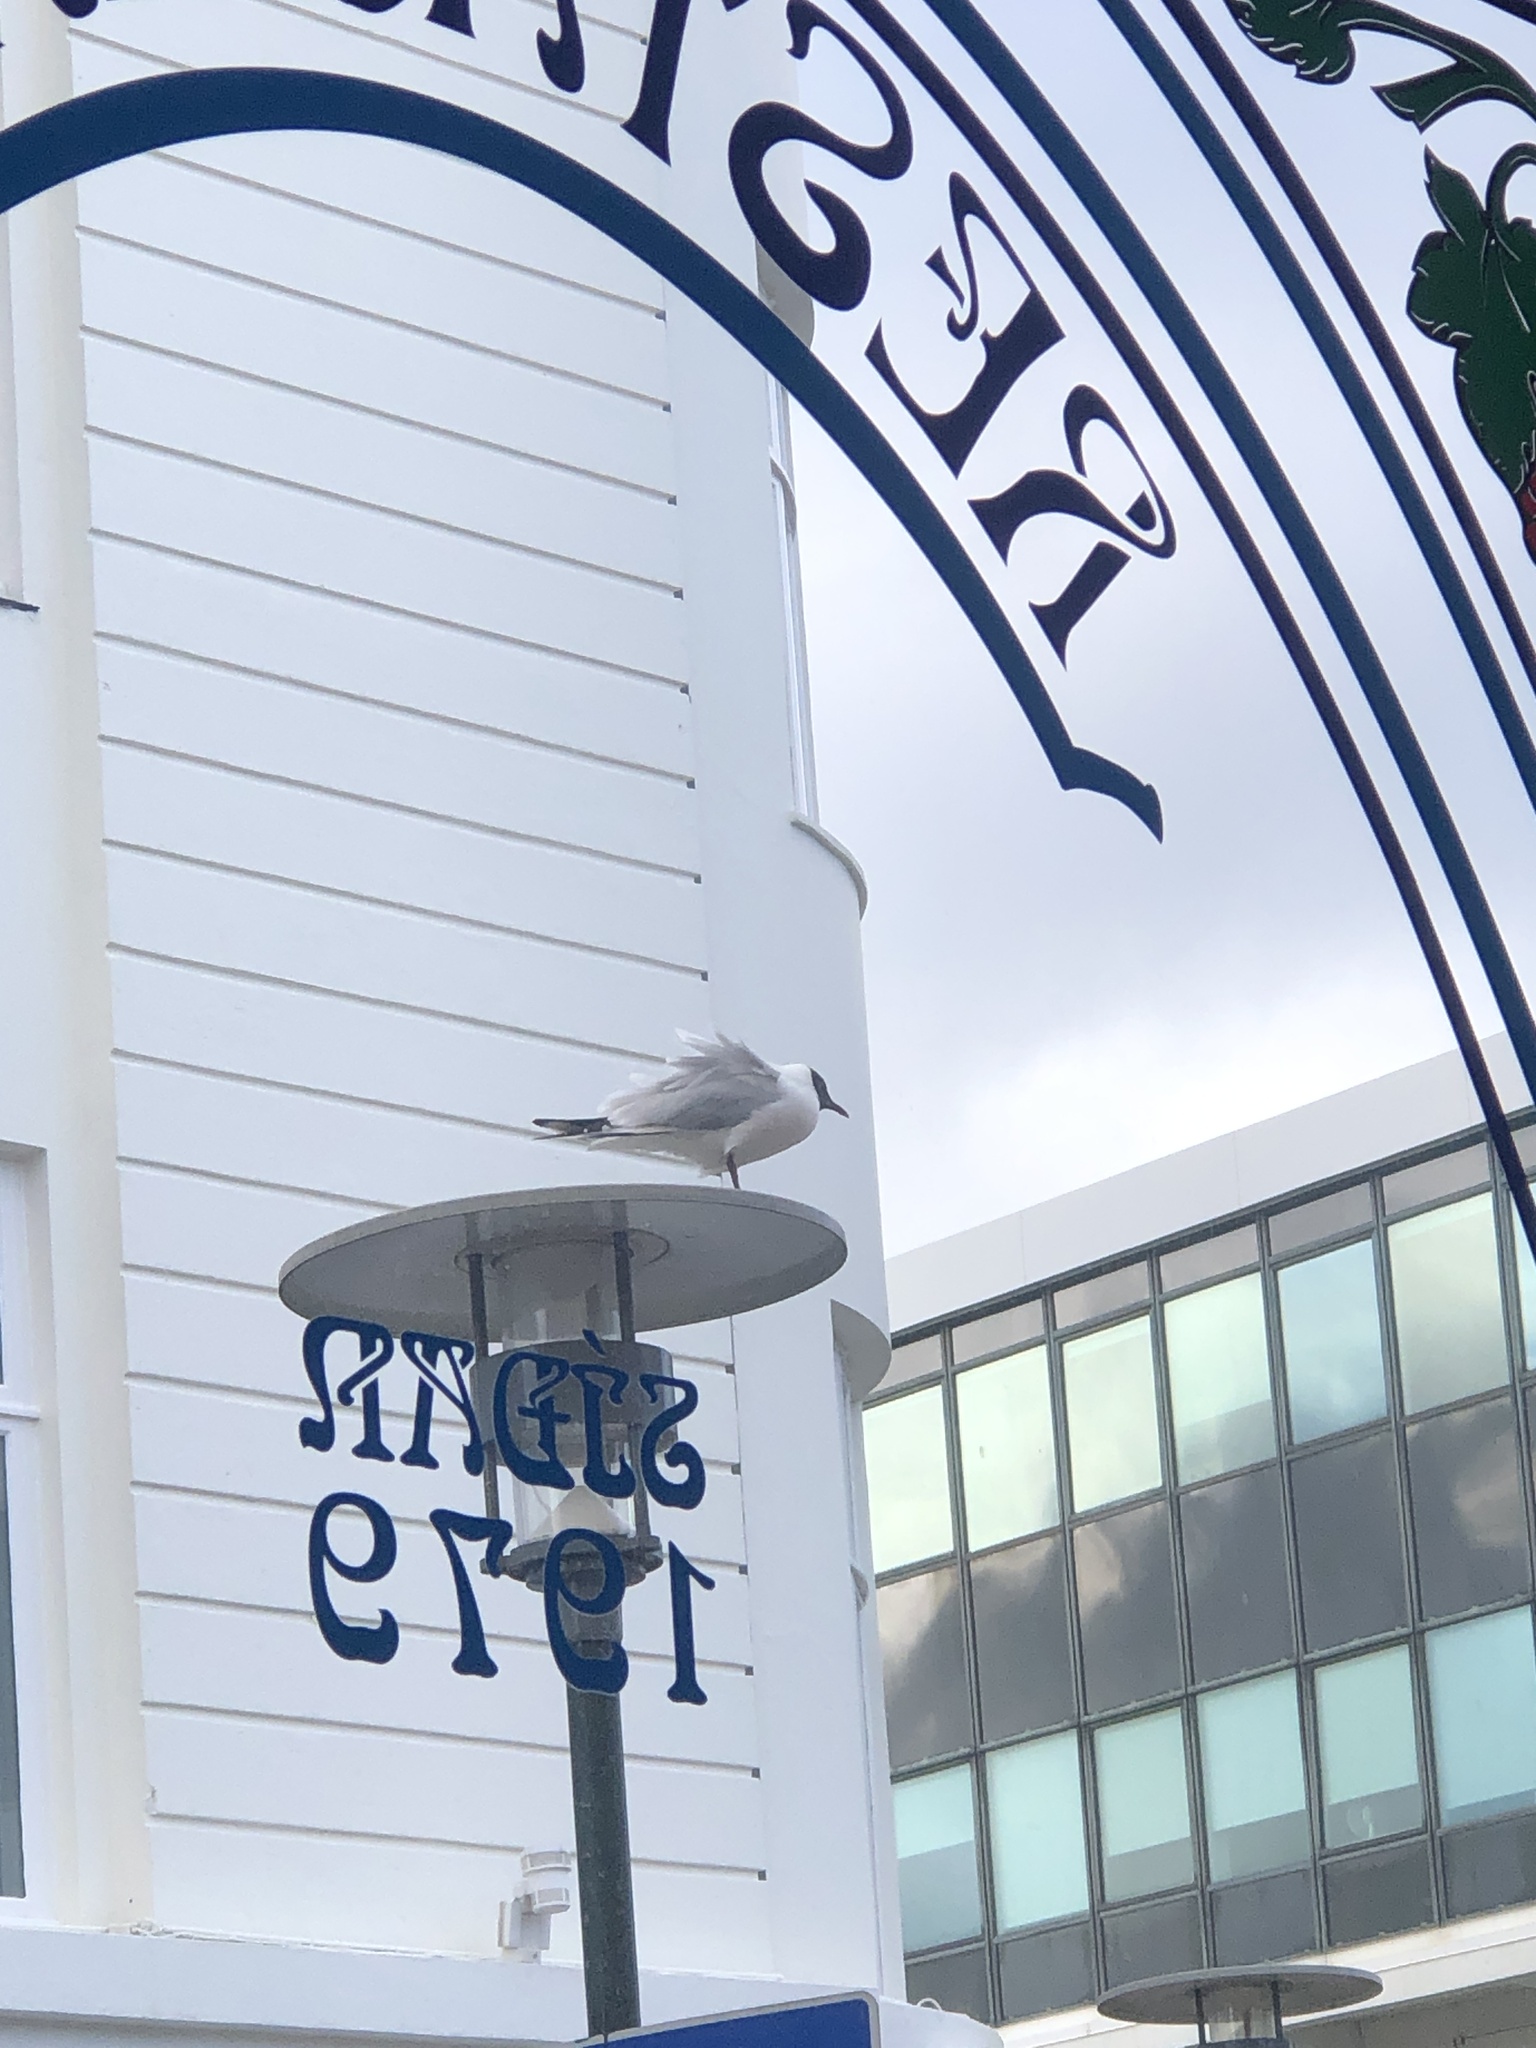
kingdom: Animalia
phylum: Chordata
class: Aves
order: Charadriiformes
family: Laridae
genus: Chroicocephalus
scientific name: Chroicocephalus ridibundus
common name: Black-headed gull
